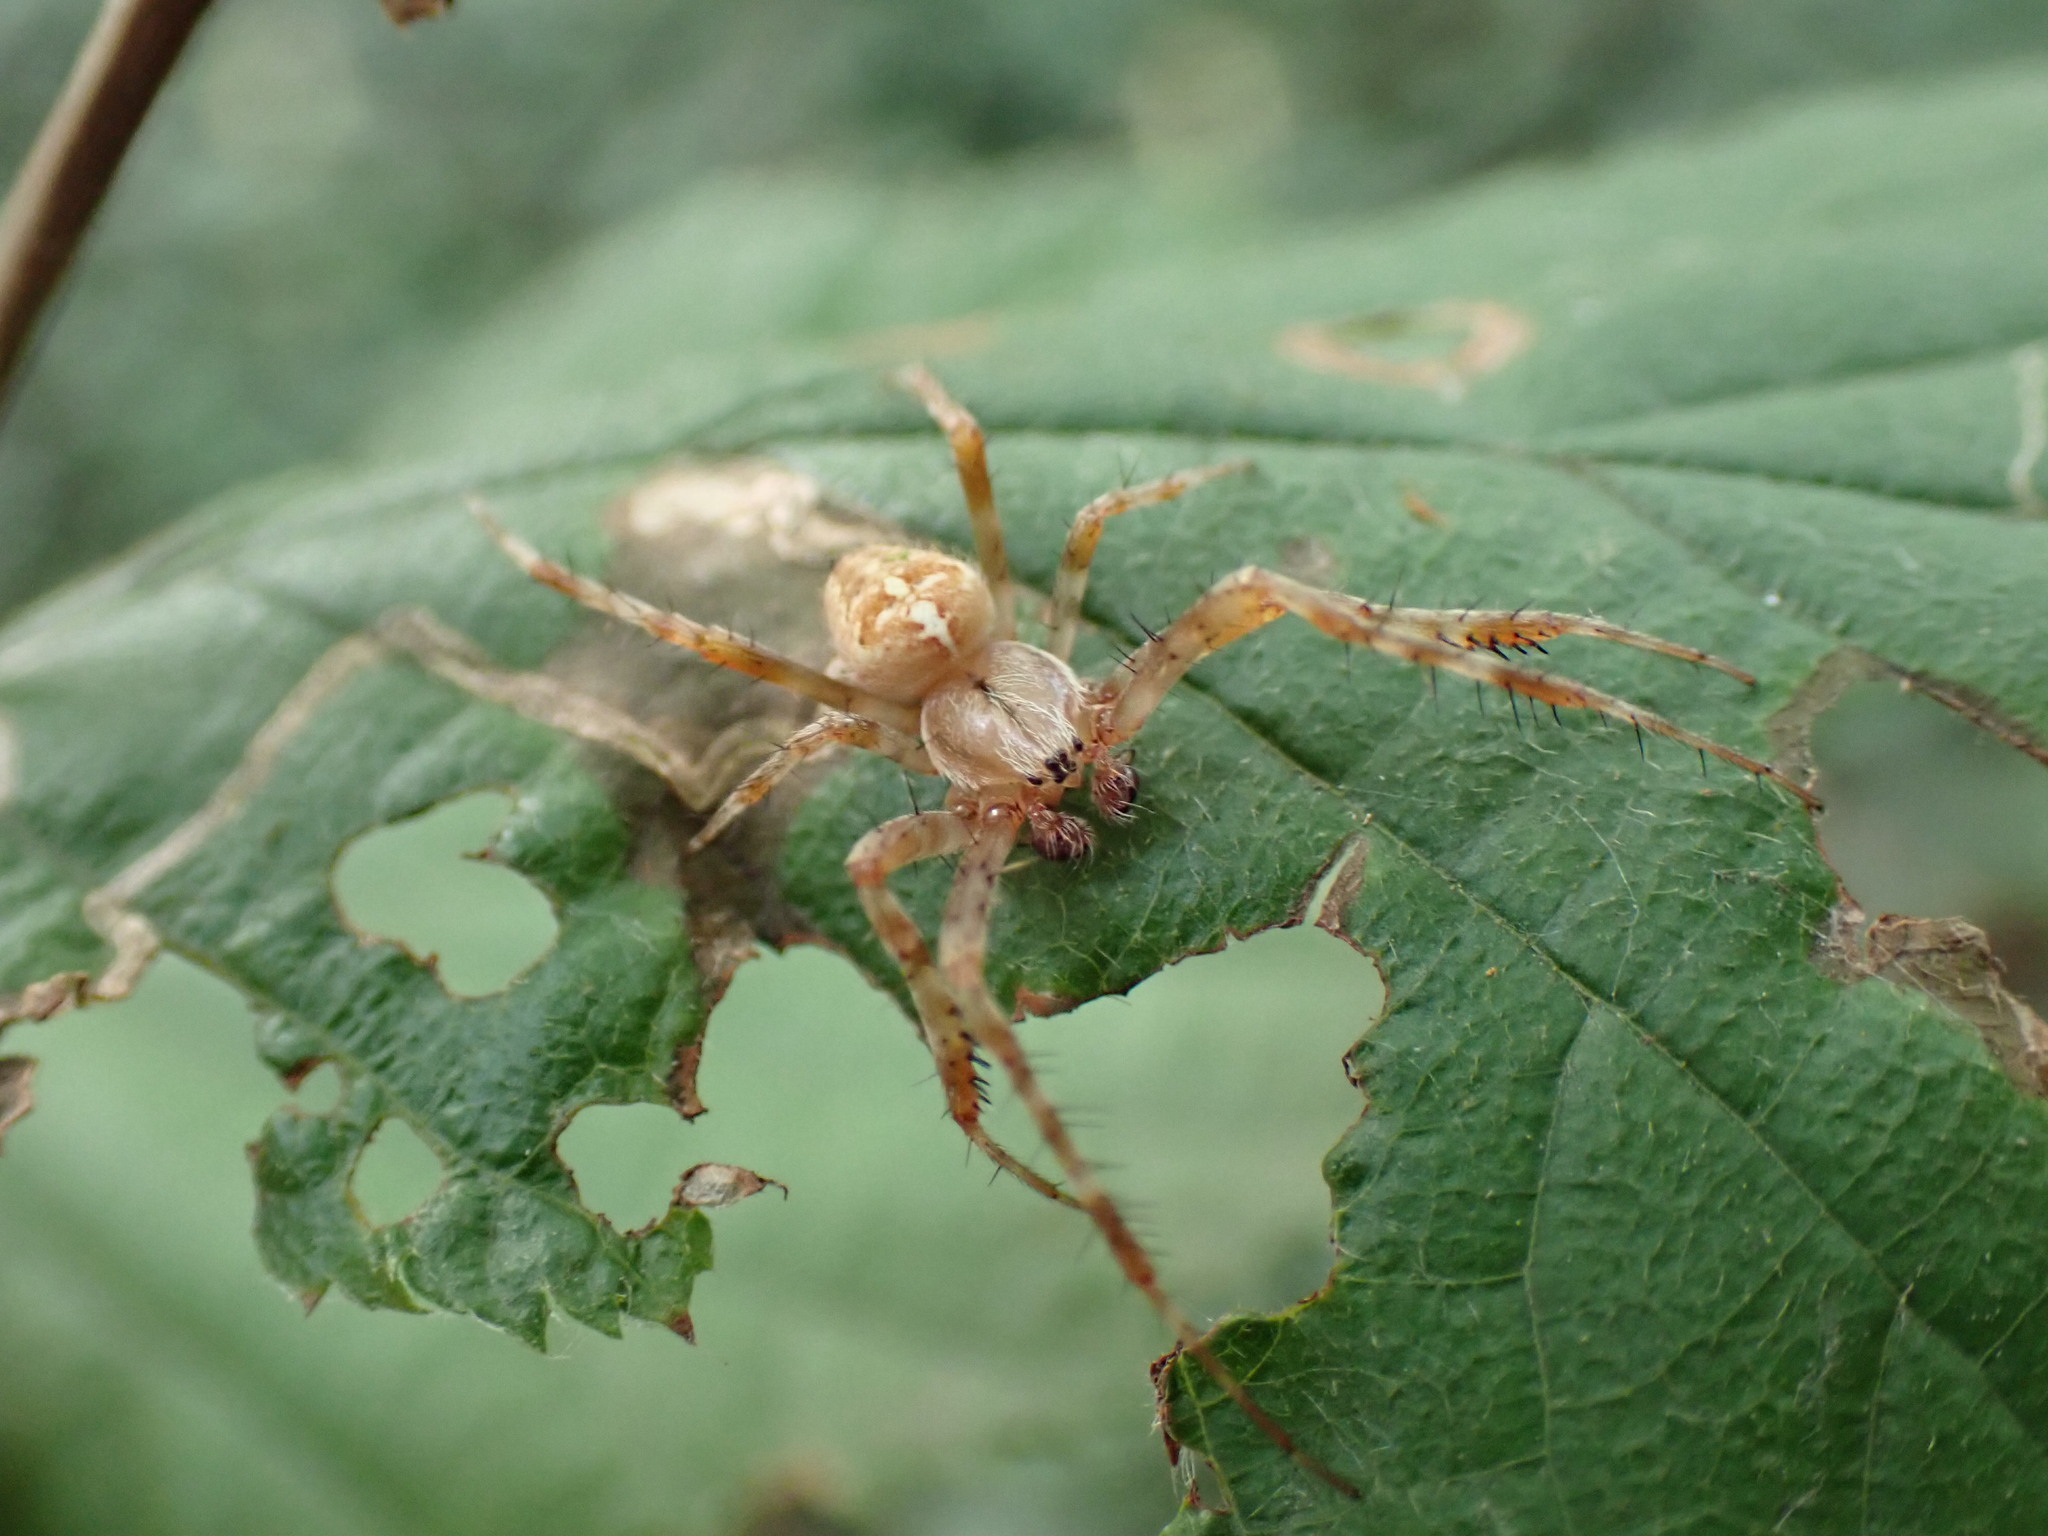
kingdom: Animalia
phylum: Arthropoda
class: Arachnida
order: Araneae
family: Araneidae
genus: Araneus
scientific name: Araneus diadematus
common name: Cross orbweaver
